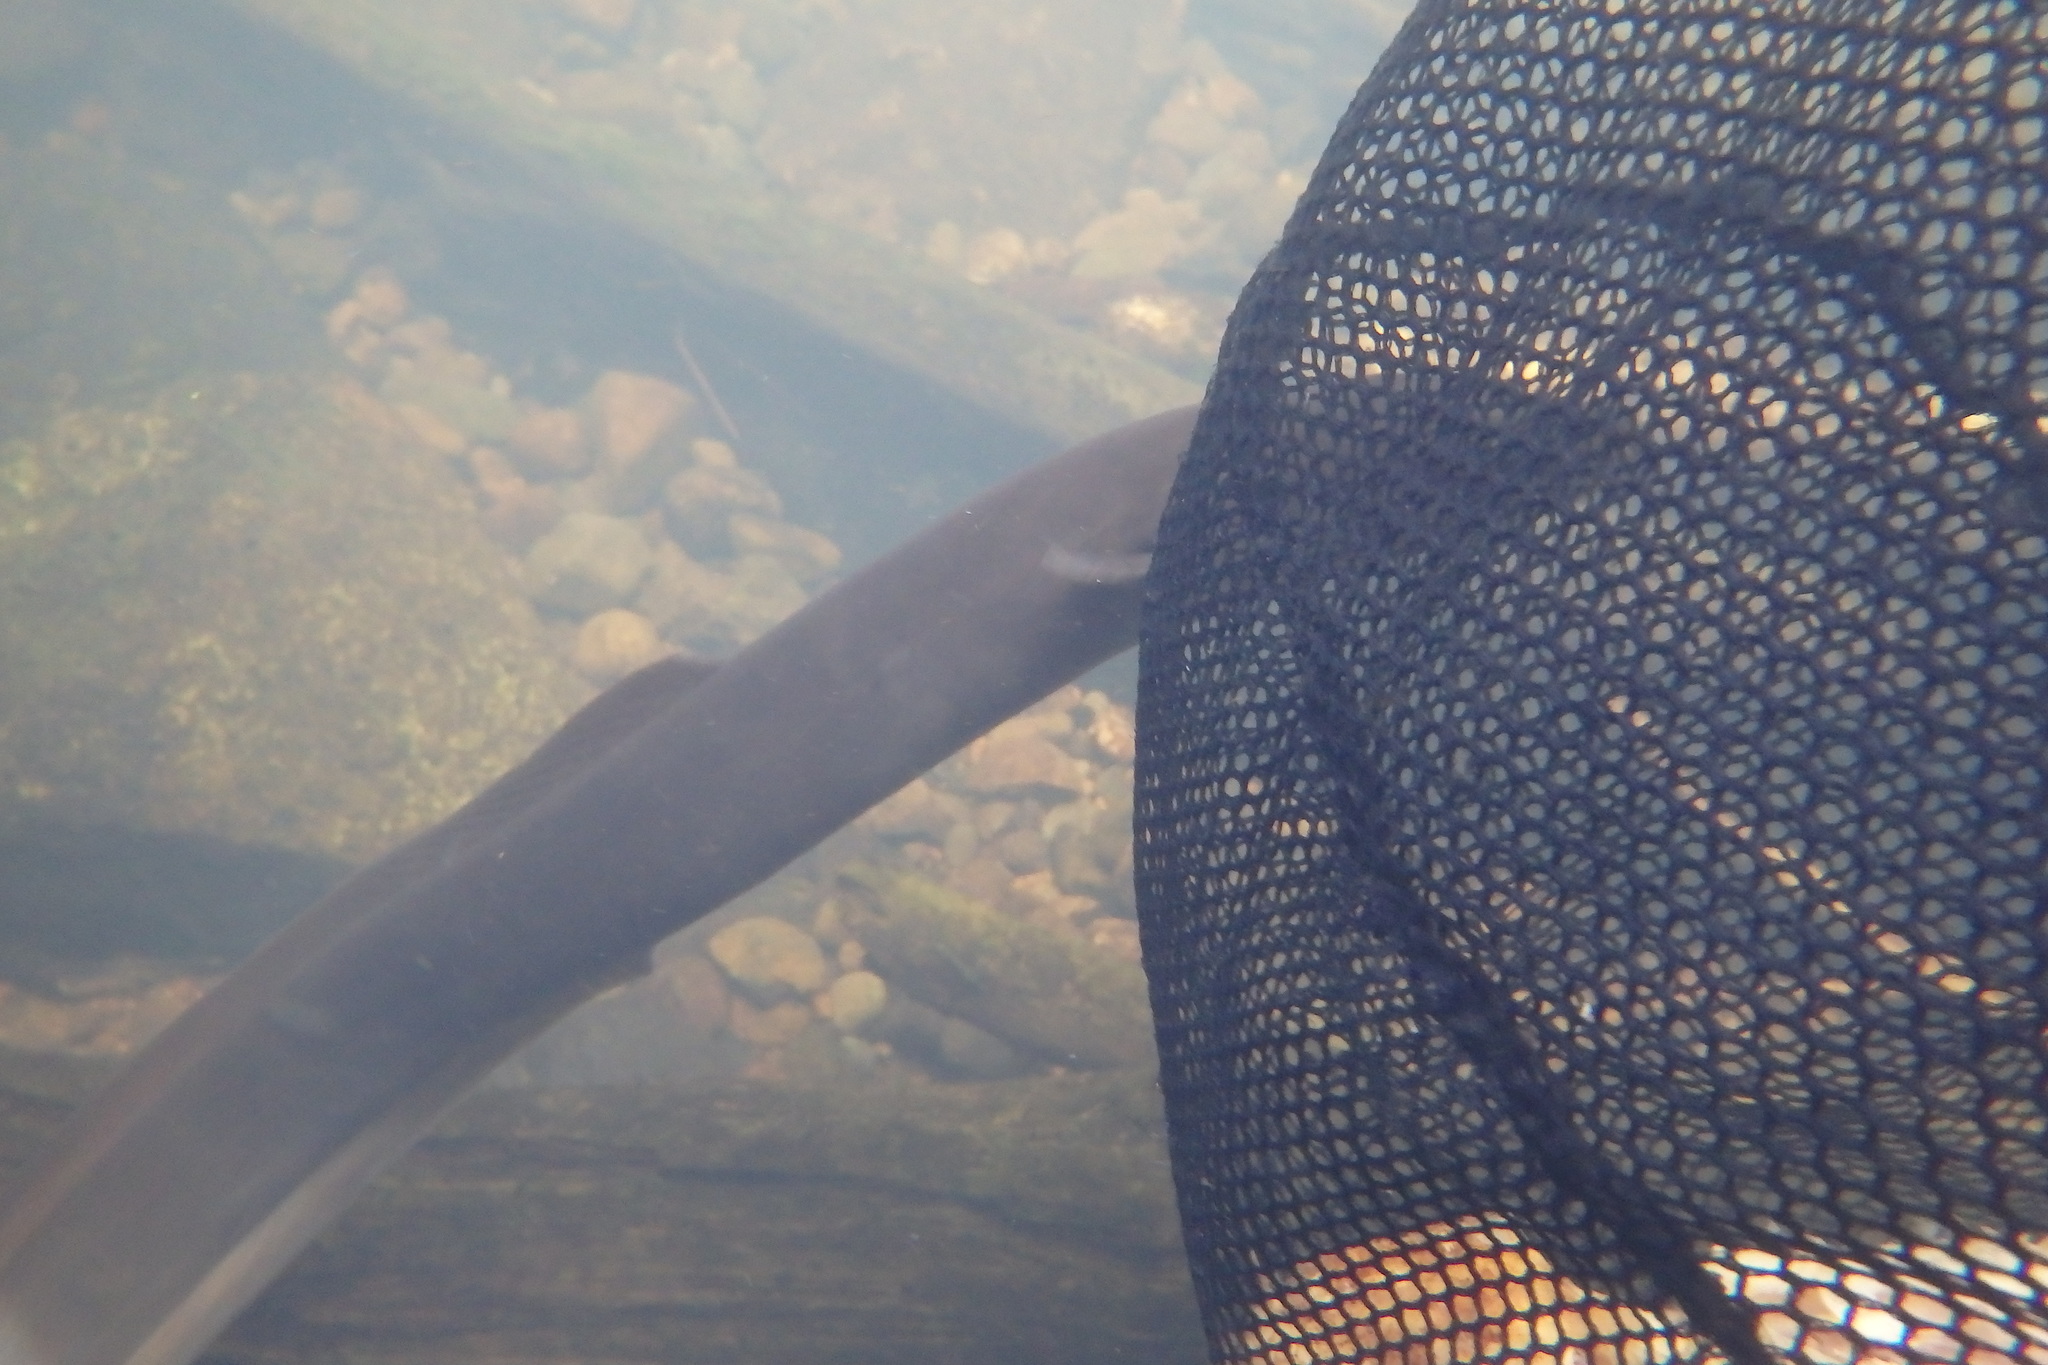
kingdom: Animalia
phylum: Chordata
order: Anguilliformes
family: Anguillidae
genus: Anguilla
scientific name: Anguilla dieffenbachii
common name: New zealand longfin eel
